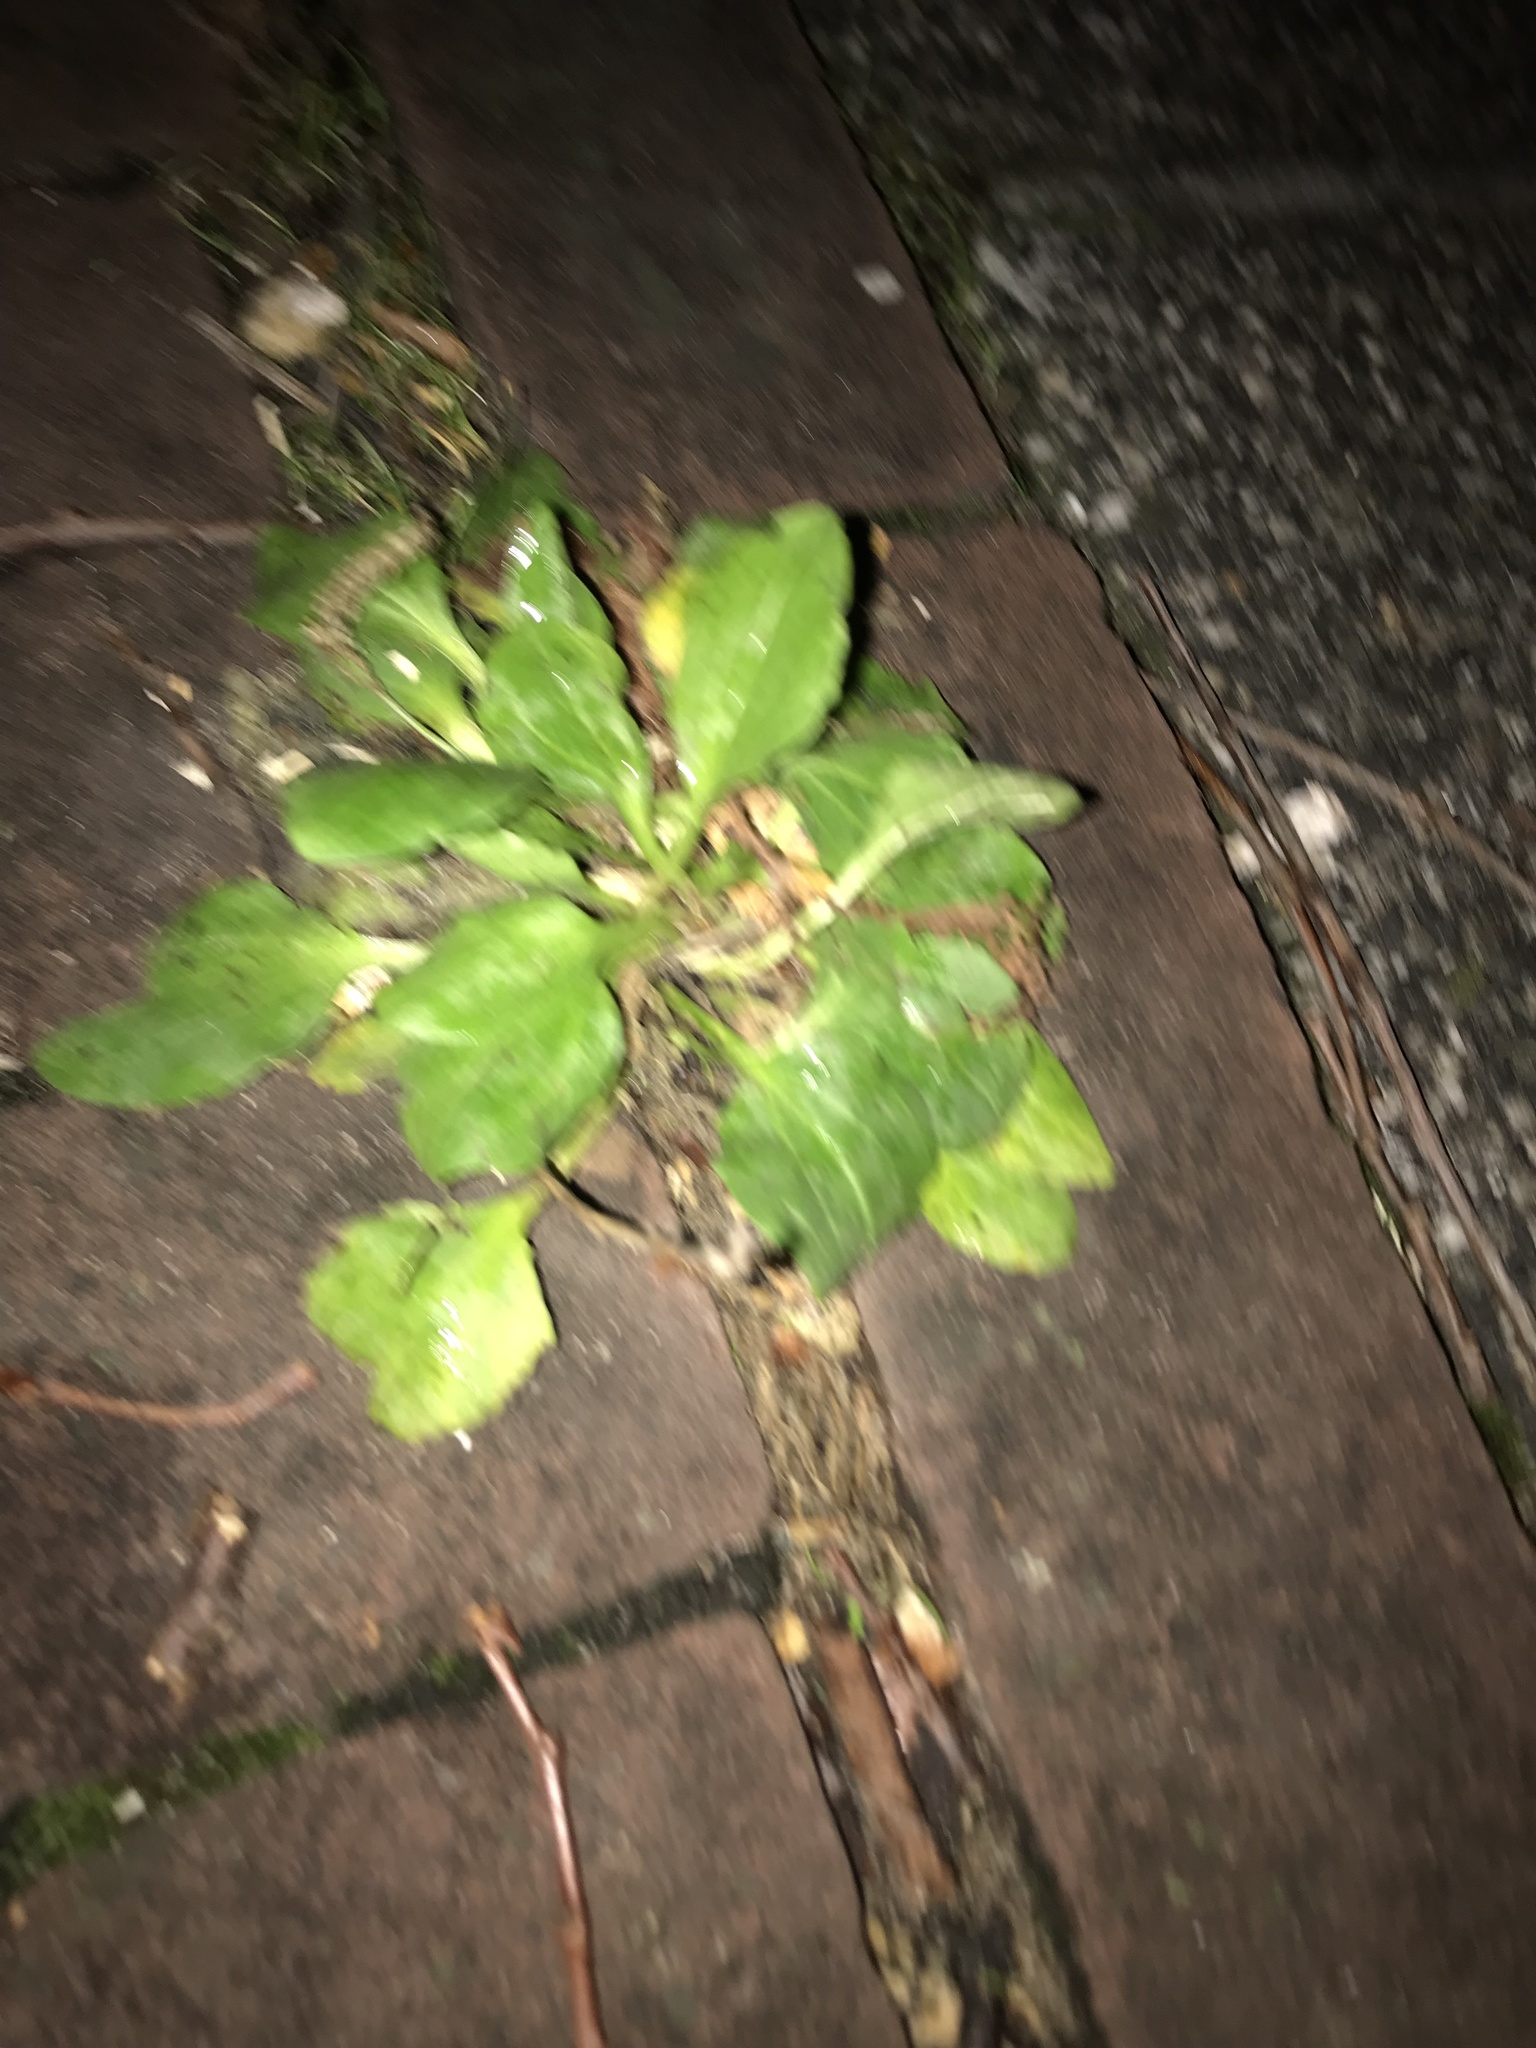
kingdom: Plantae
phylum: Tracheophyta
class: Magnoliopsida
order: Lamiales
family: Plantaginaceae
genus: Plantago
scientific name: Plantago major
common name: Common plantain
